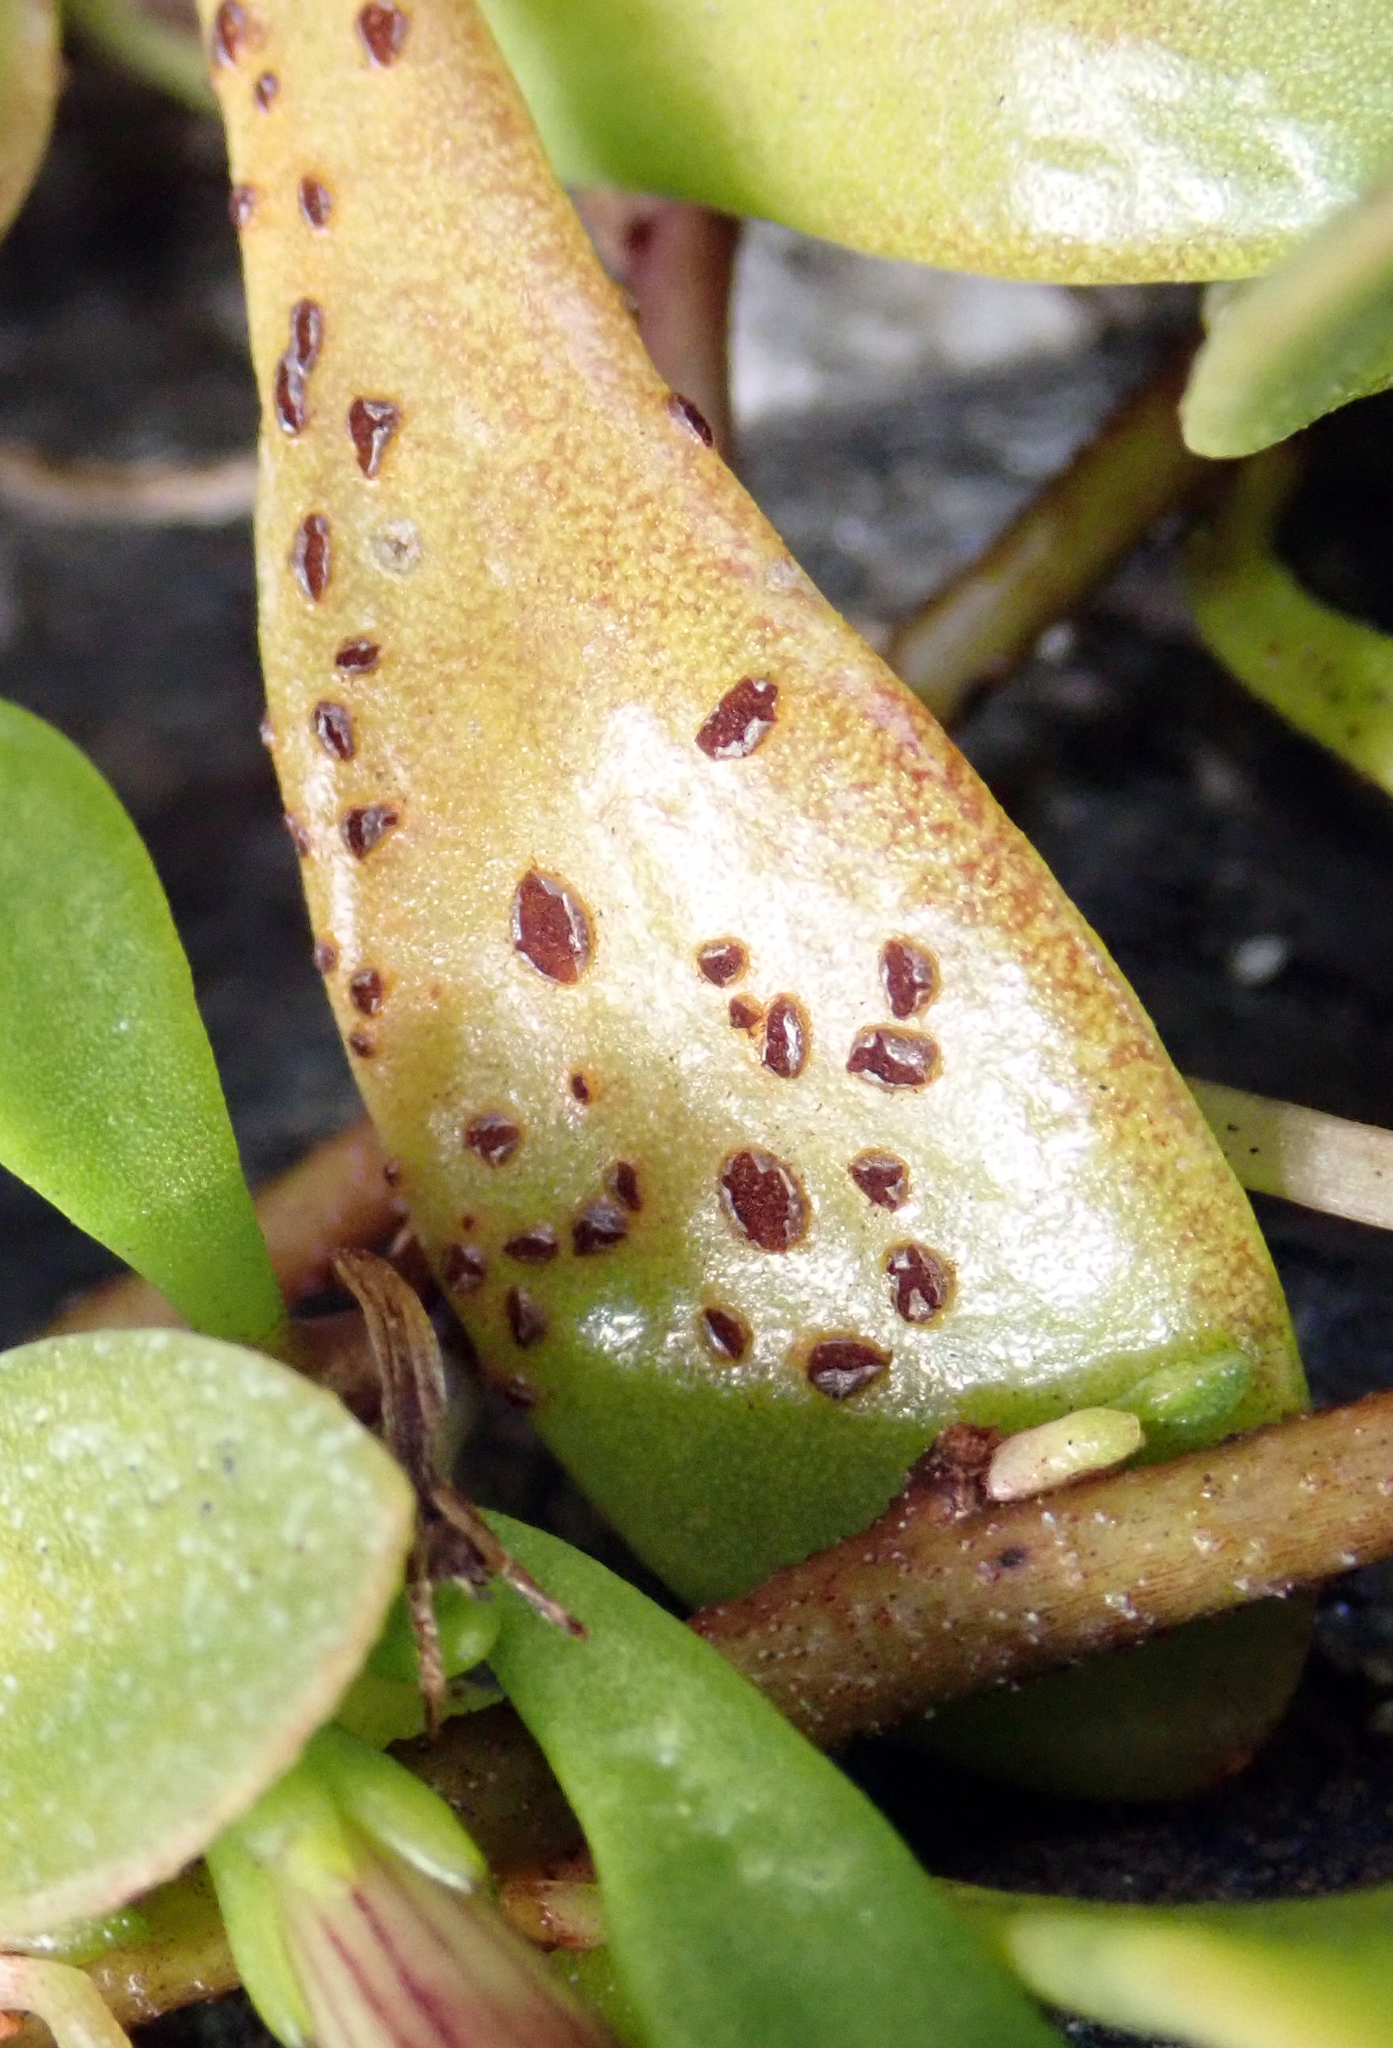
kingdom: Fungi
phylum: Basidiomycota
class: Pucciniomycetes
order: Pucciniales
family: Pucciniaceae
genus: Uromyces
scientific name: Uromyces scaevolae
